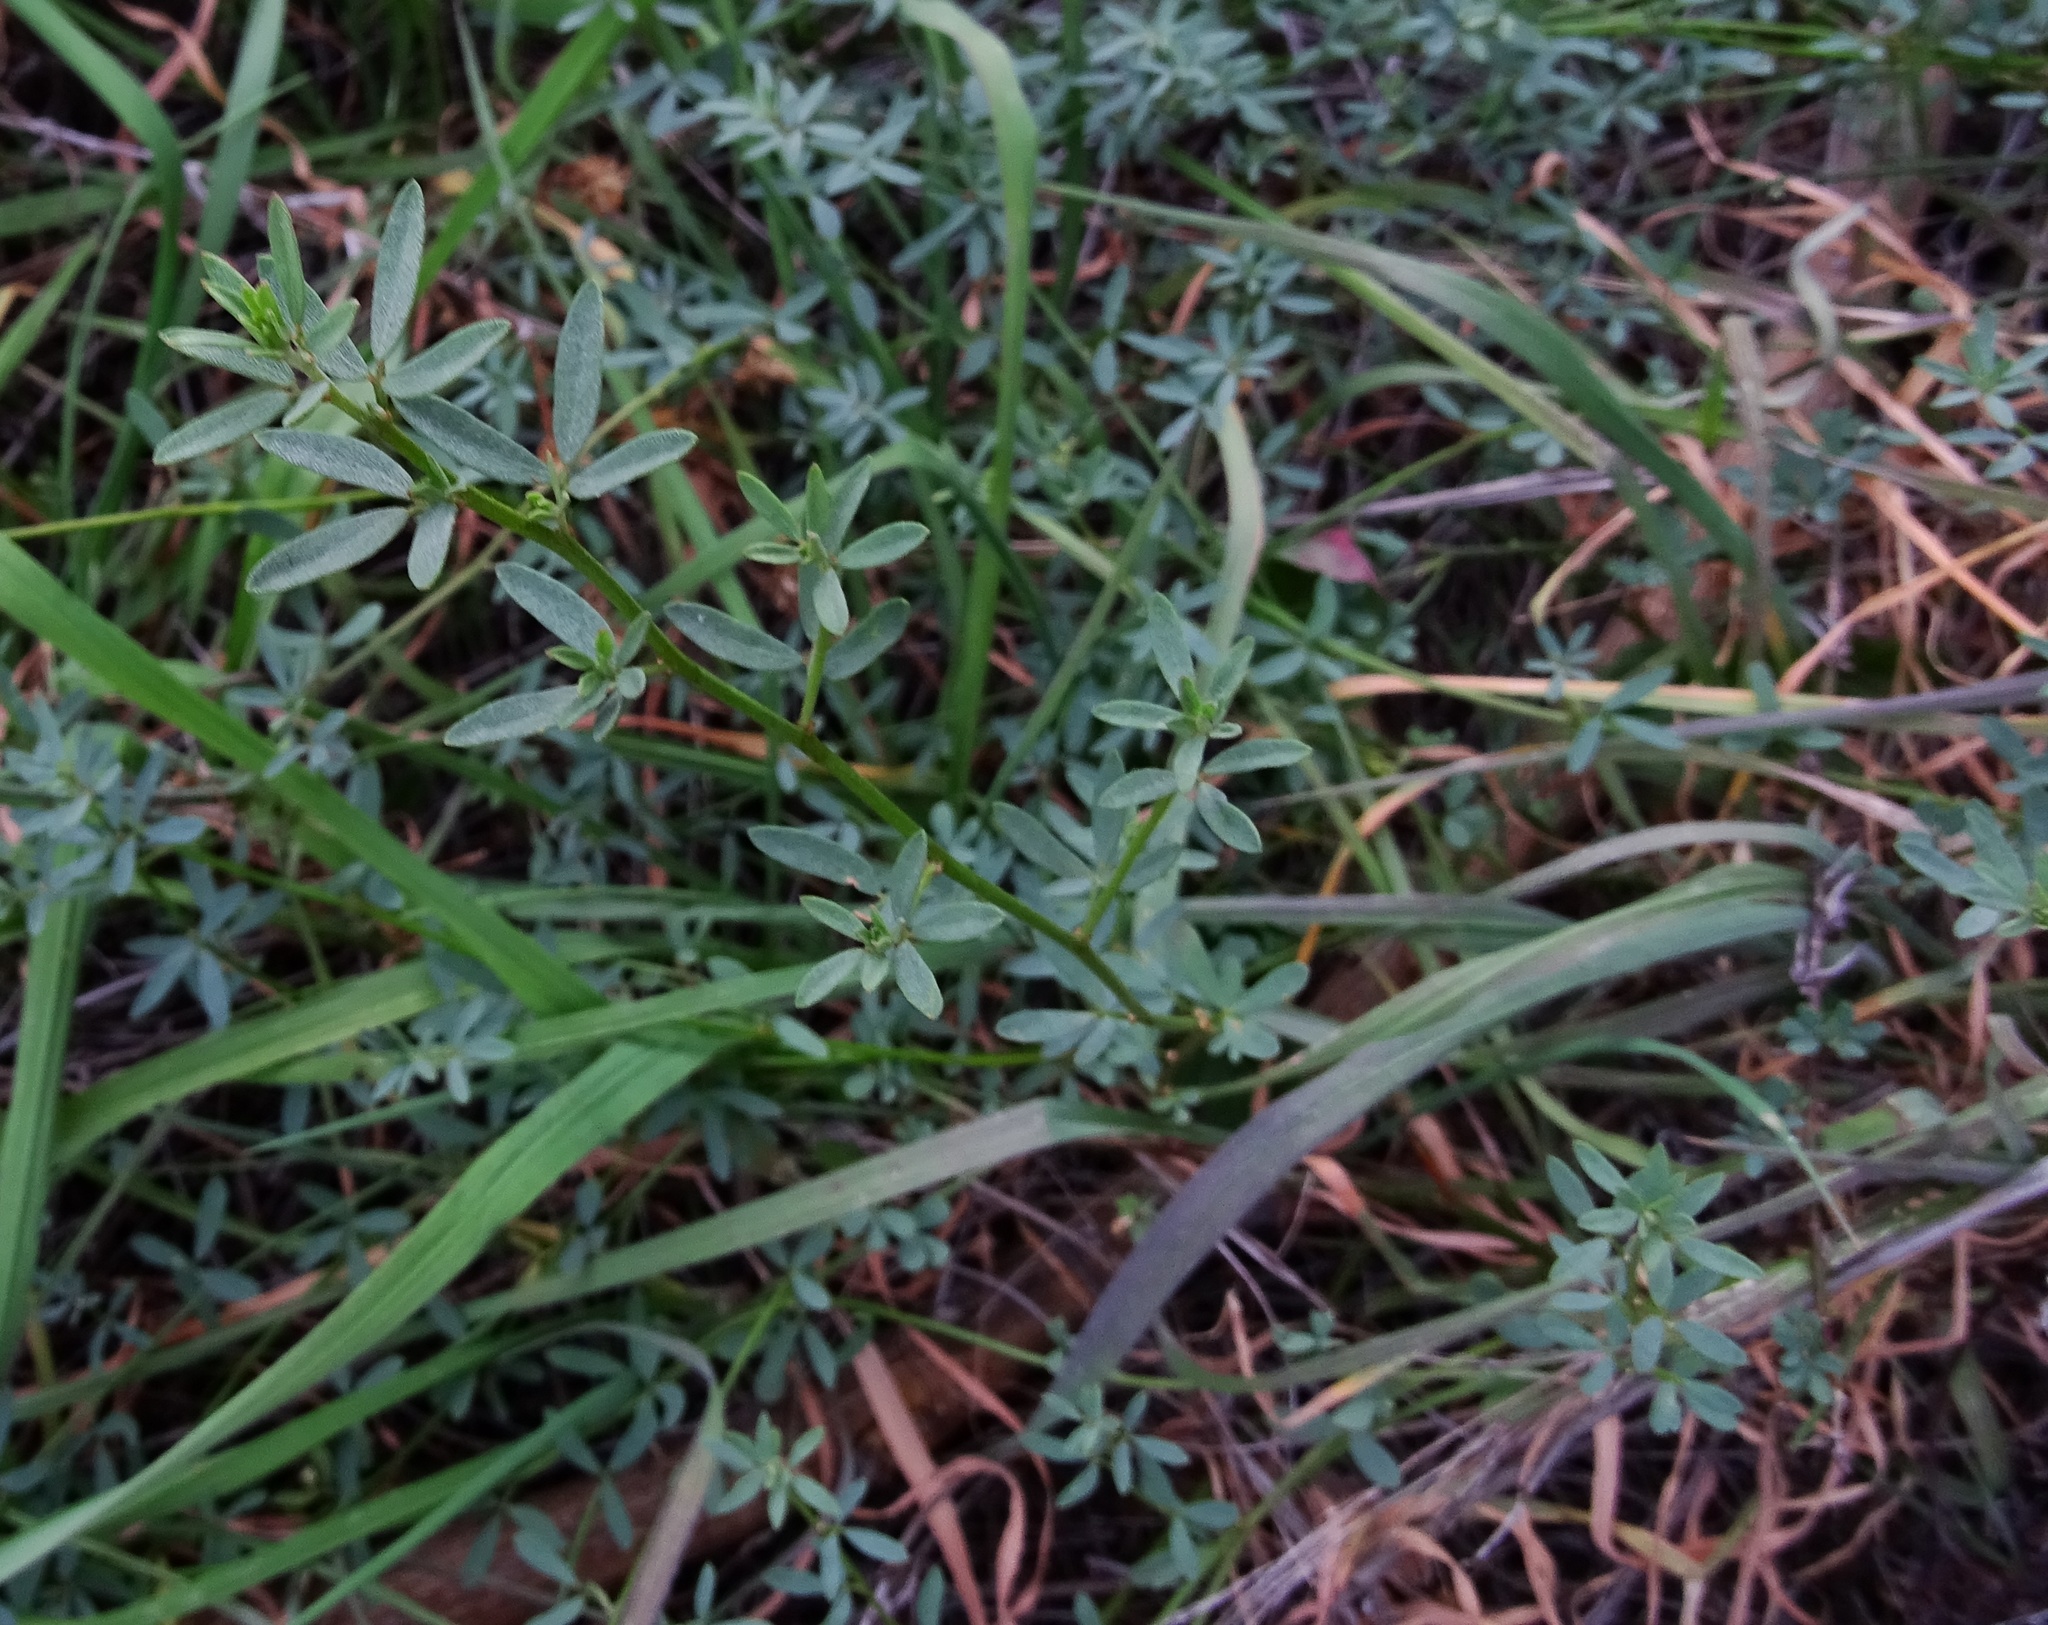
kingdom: Plantae
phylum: Tracheophyta
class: Magnoliopsida
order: Fabales
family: Fabaceae
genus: Acmispon
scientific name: Acmispon glaber
